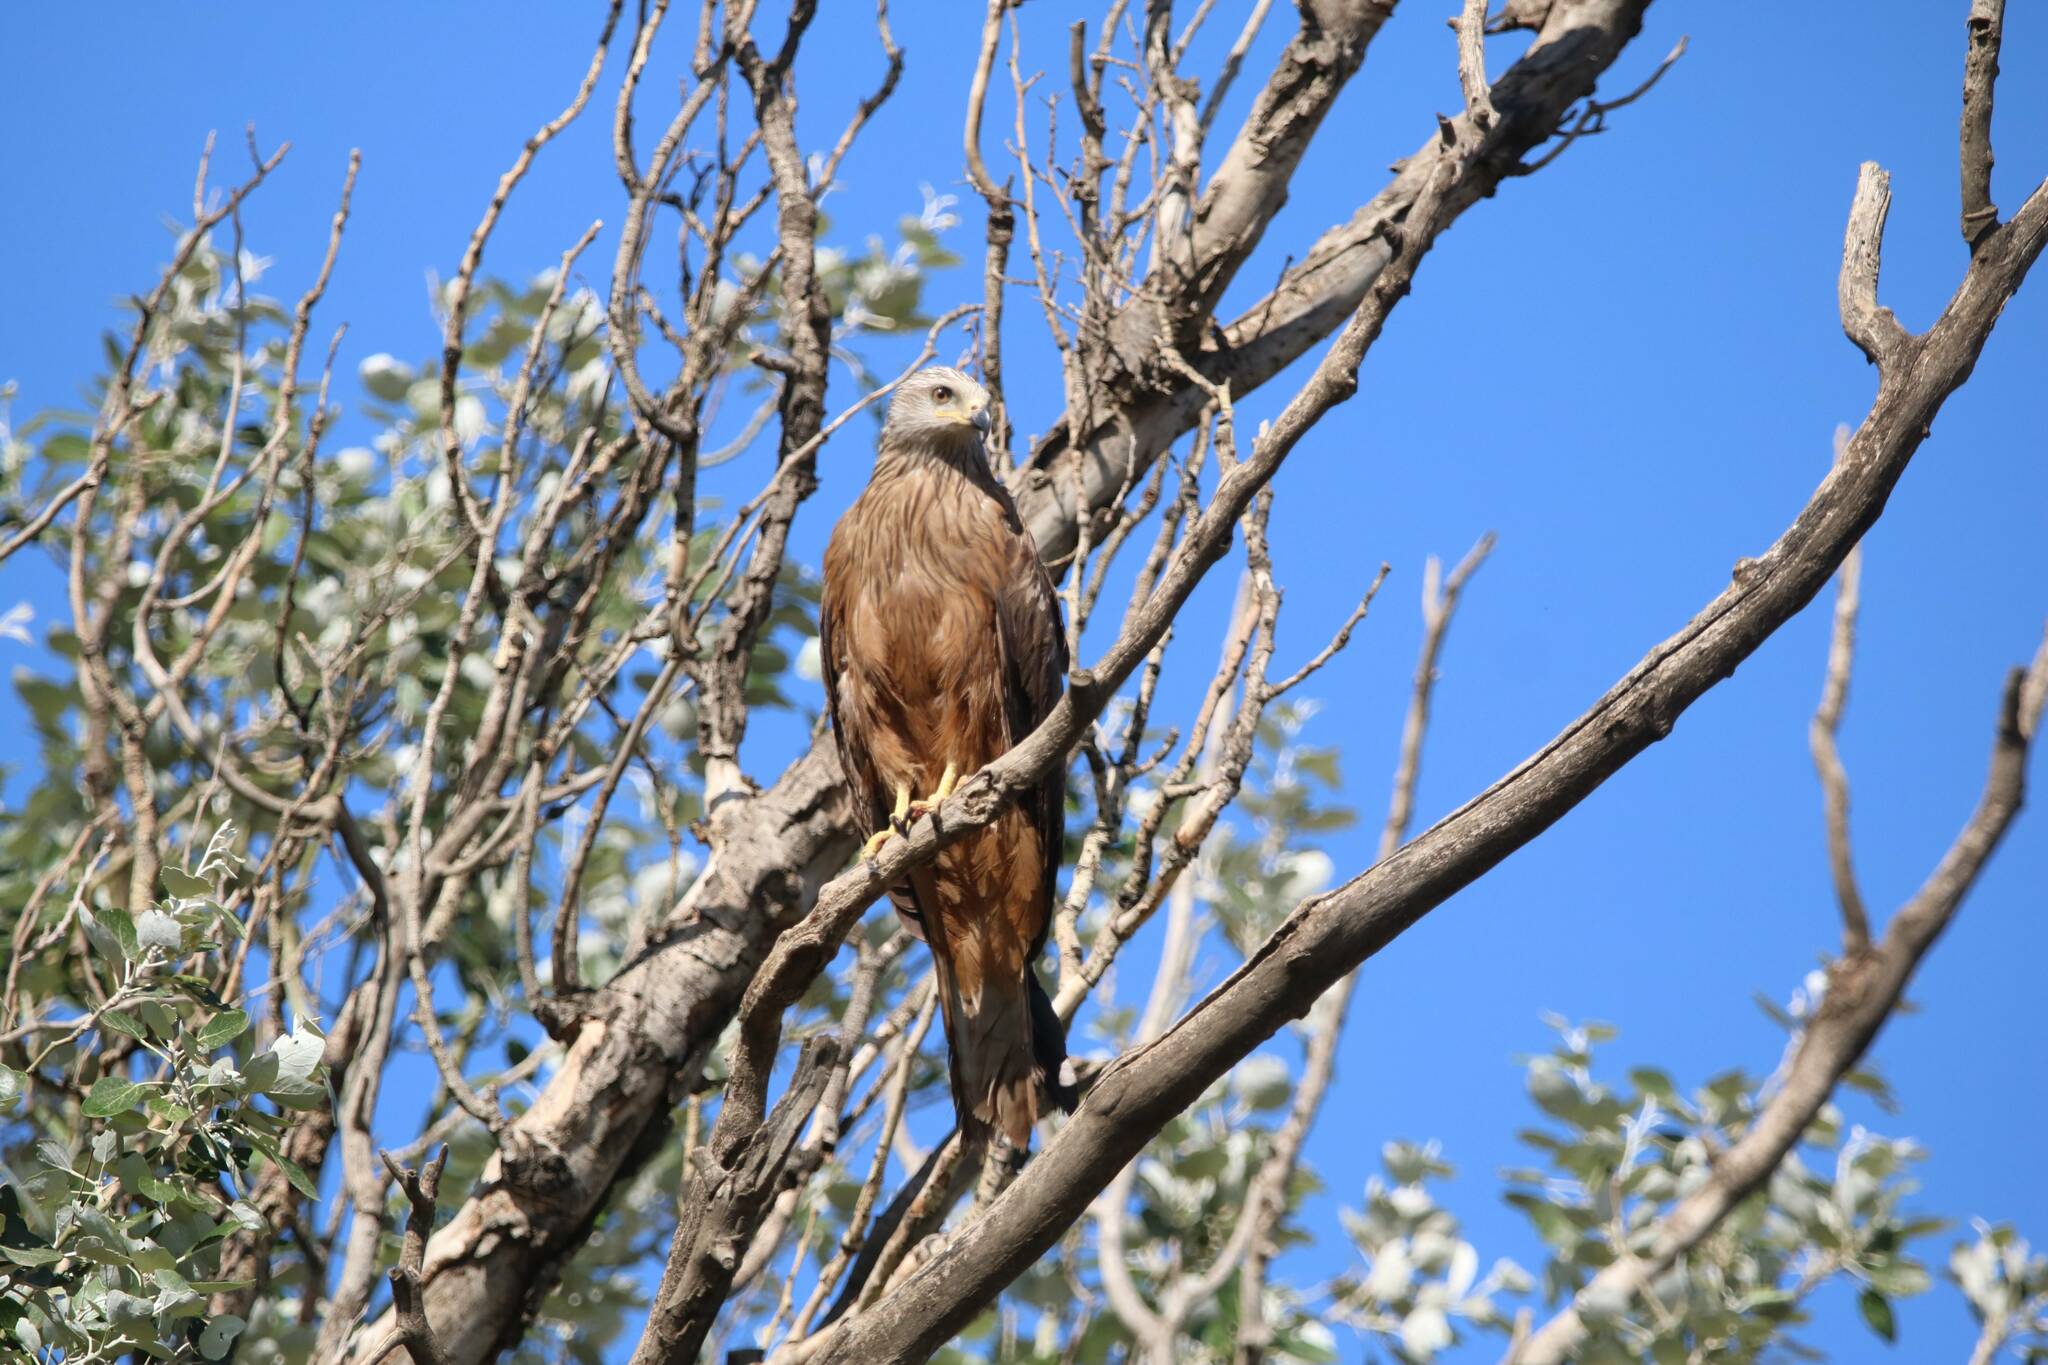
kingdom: Animalia
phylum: Chordata
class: Aves
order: Accipitriformes
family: Accipitridae
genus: Milvus
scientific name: Milvus migrans
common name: Black kite
